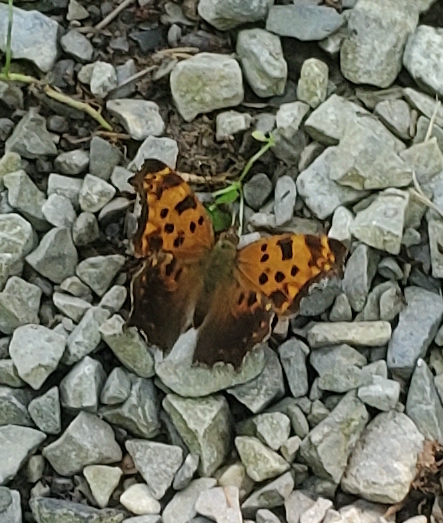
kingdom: Animalia
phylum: Arthropoda
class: Insecta
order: Lepidoptera
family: Nymphalidae
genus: Polygonia
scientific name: Polygonia comma
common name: Eastern comma
